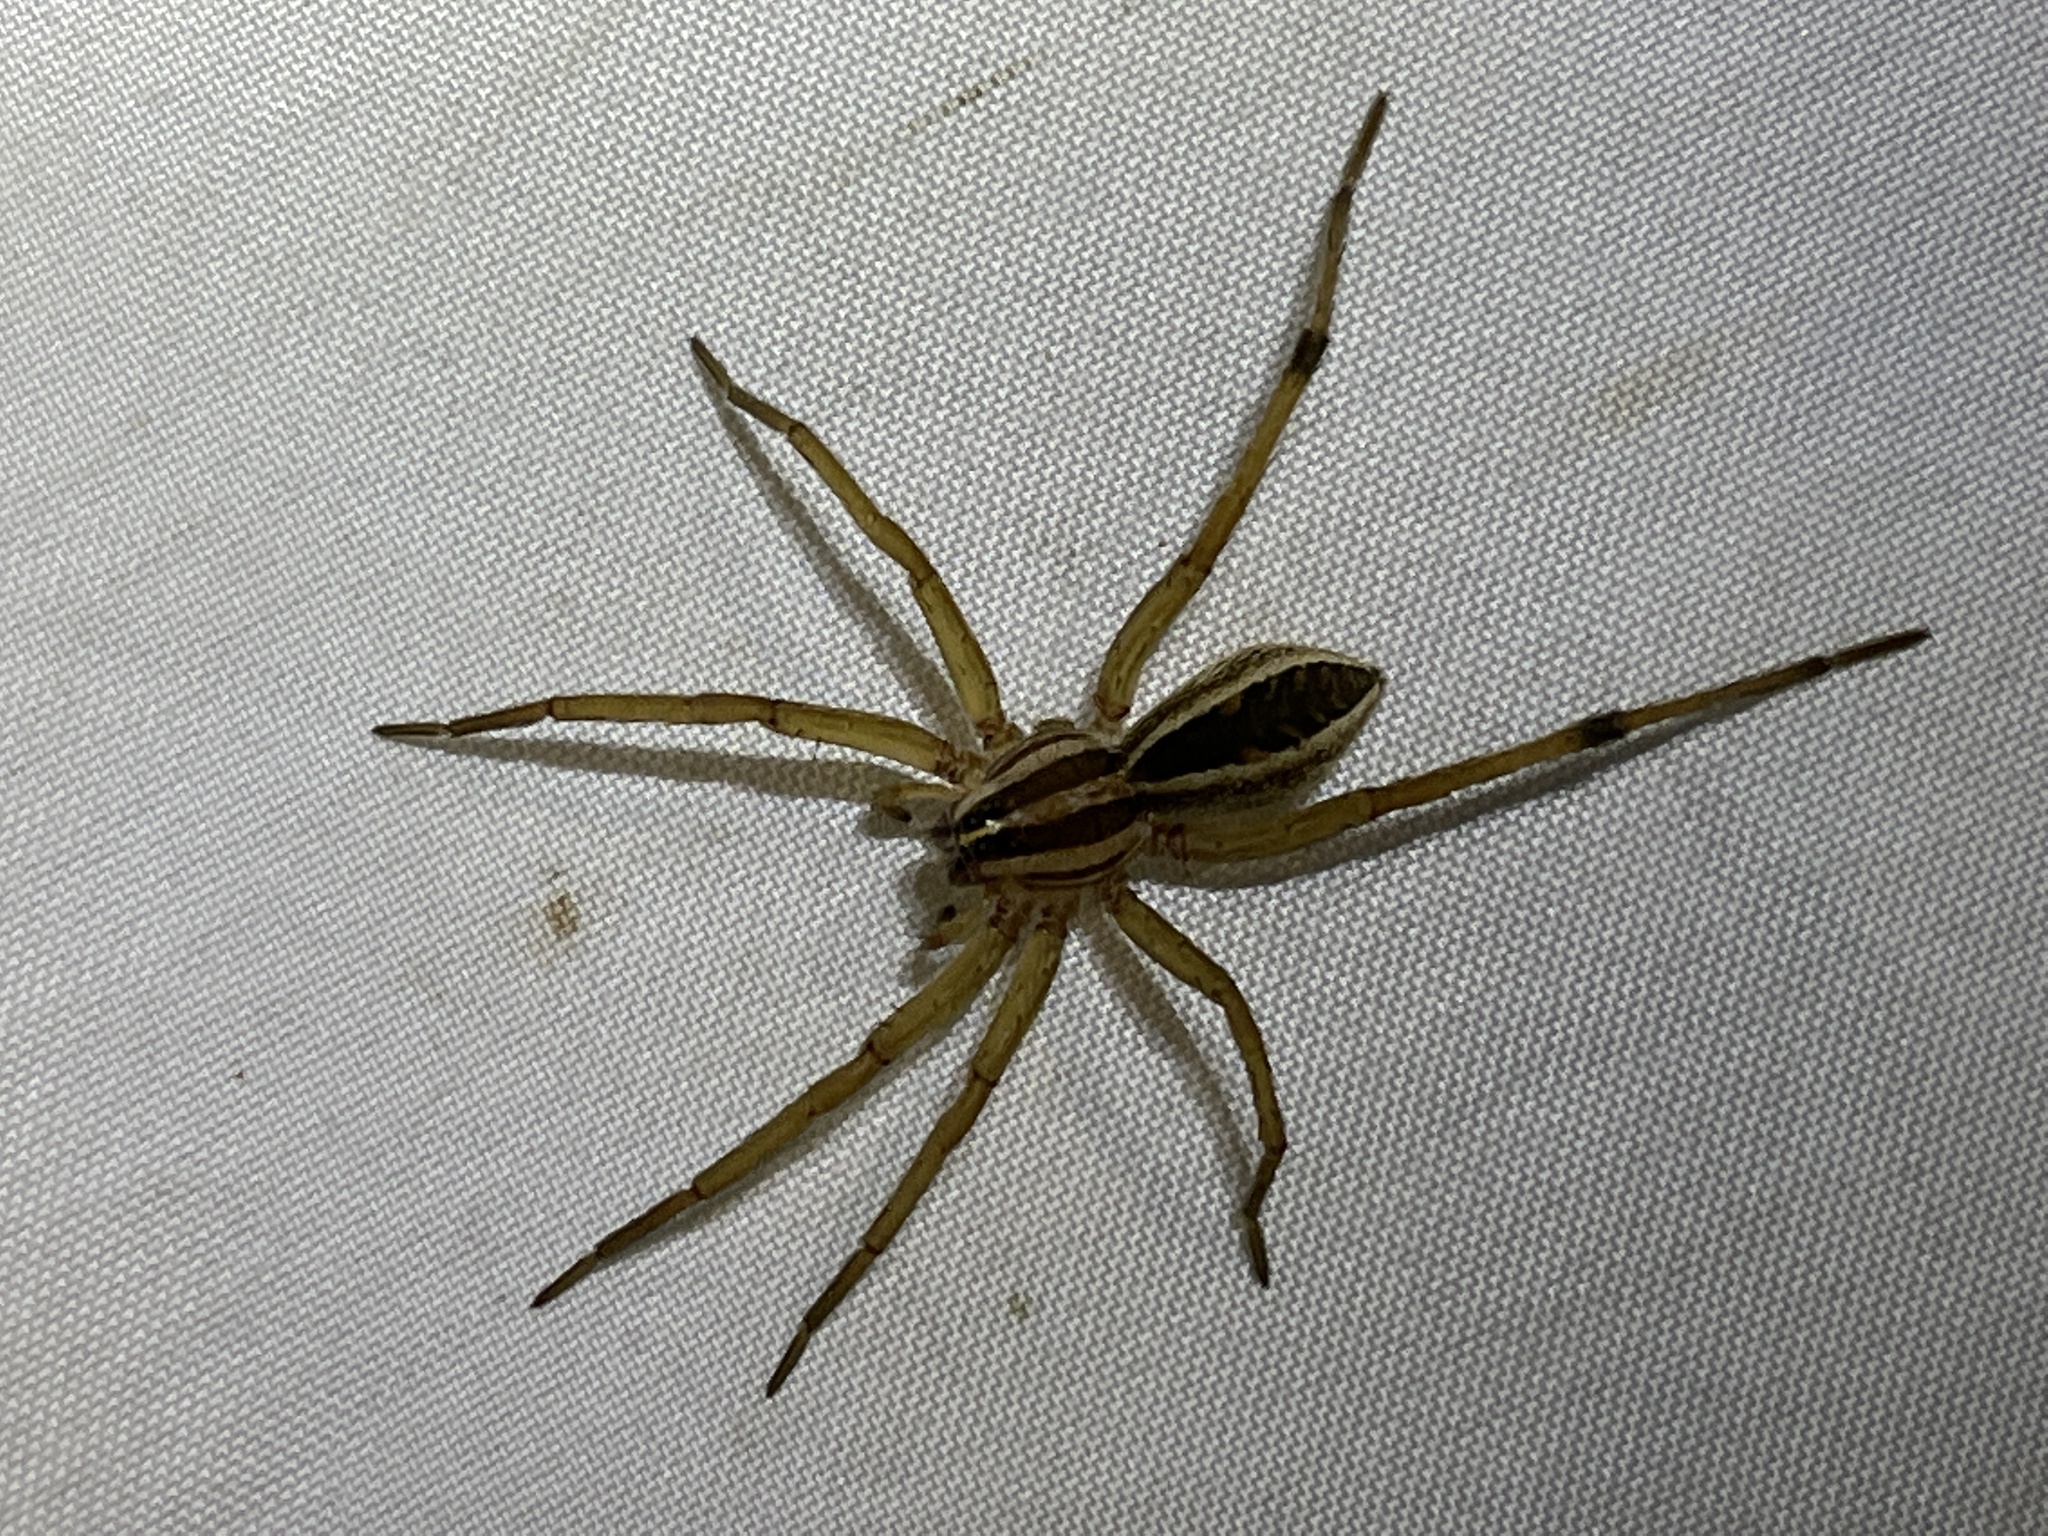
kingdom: Animalia
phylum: Arthropoda
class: Arachnida
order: Araneae
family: Lycosidae
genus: Rabidosa
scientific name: Rabidosa rabida
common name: Rabid wolf spider
